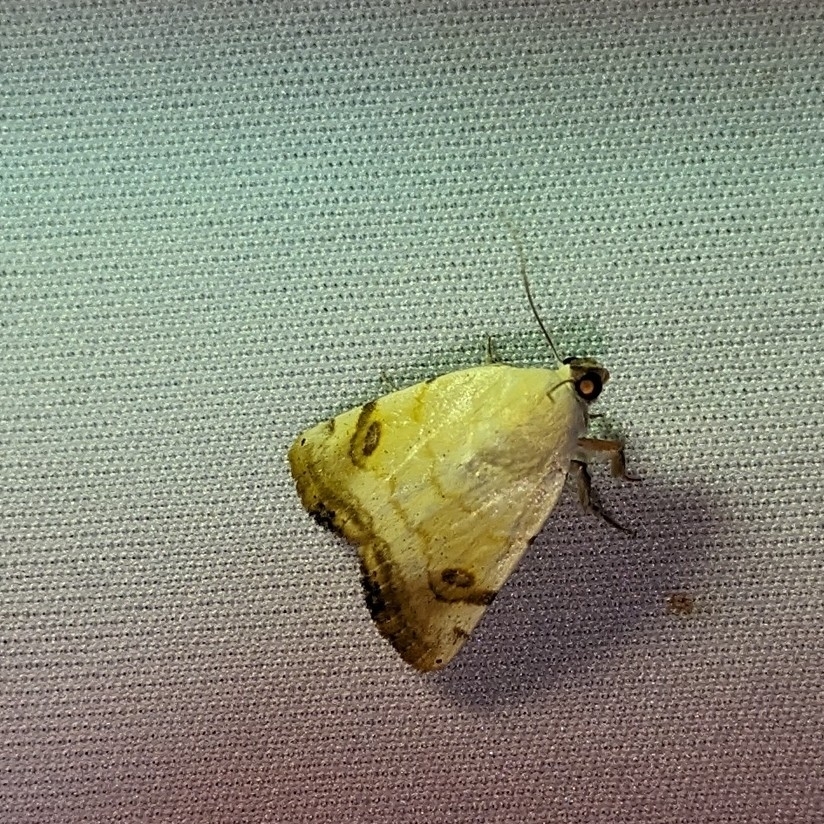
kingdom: Animalia
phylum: Arthropoda
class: Insecta
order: Lepidoptera
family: Nolidae
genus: Xanthodes
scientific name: Xanthodes albago
